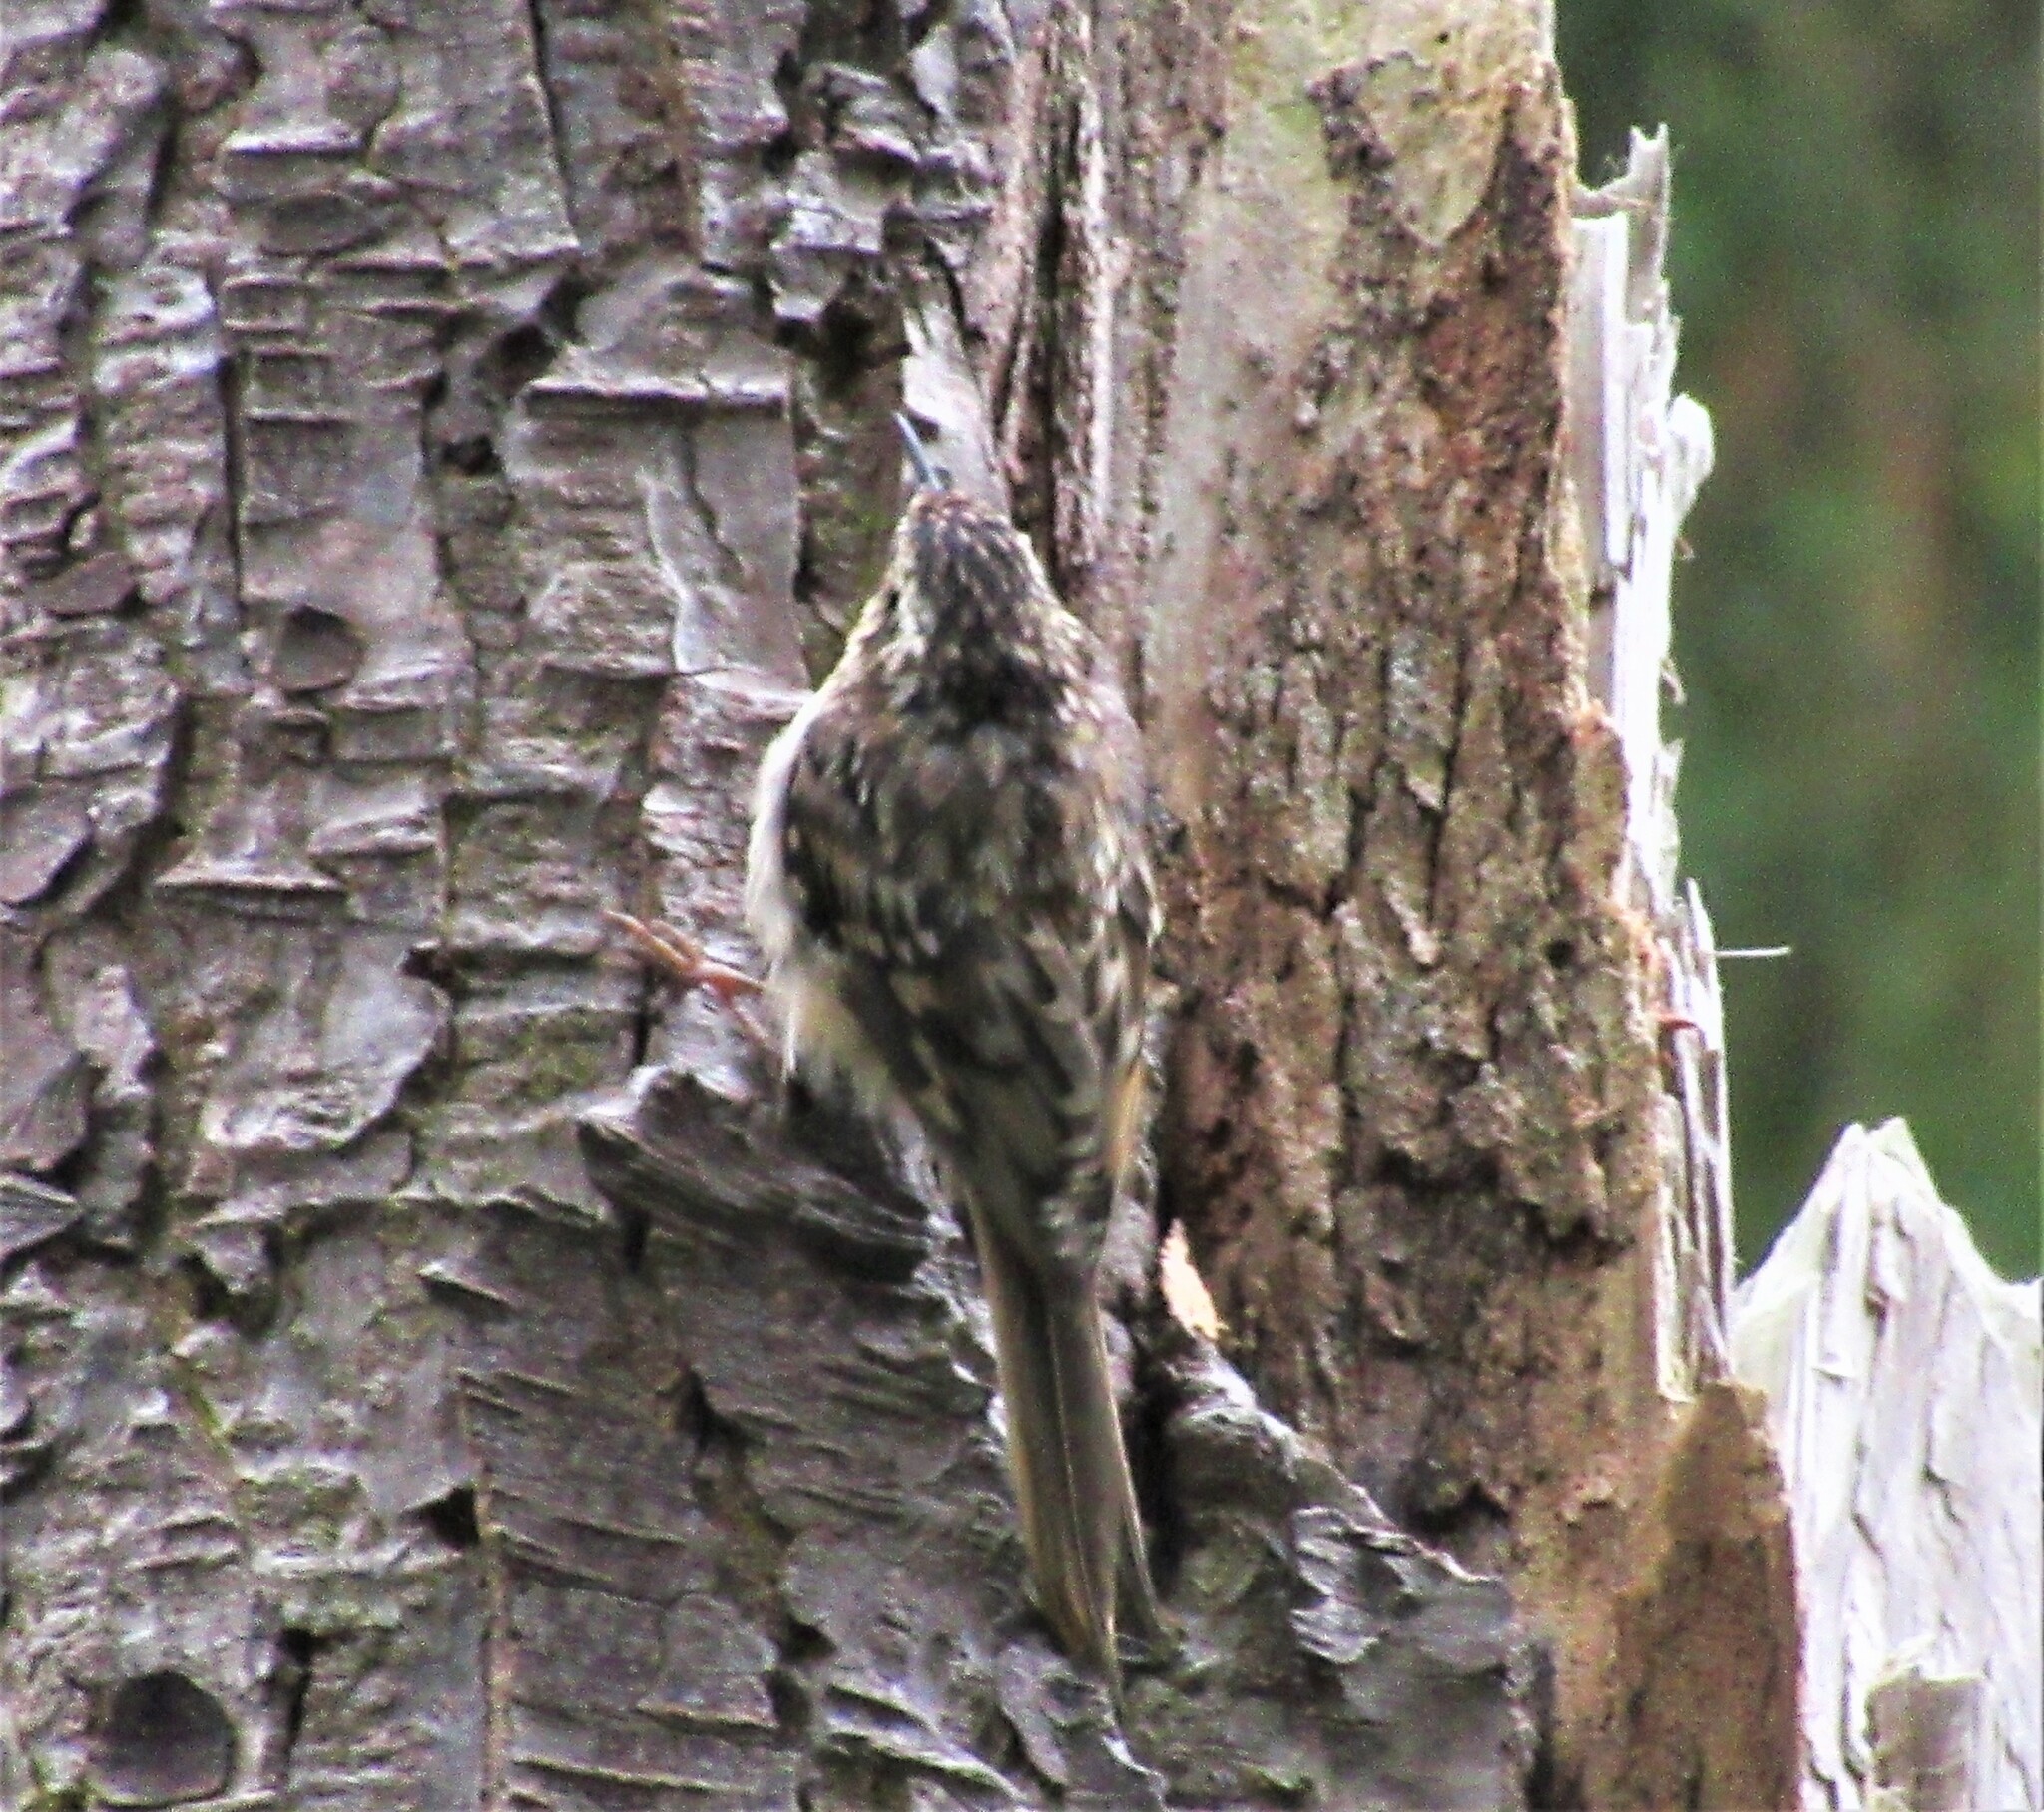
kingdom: Animalia
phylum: Chordata
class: Aves
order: Passeriformes
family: Certhiidae
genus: Certhia
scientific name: Certhia americana
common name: Brown creeper
